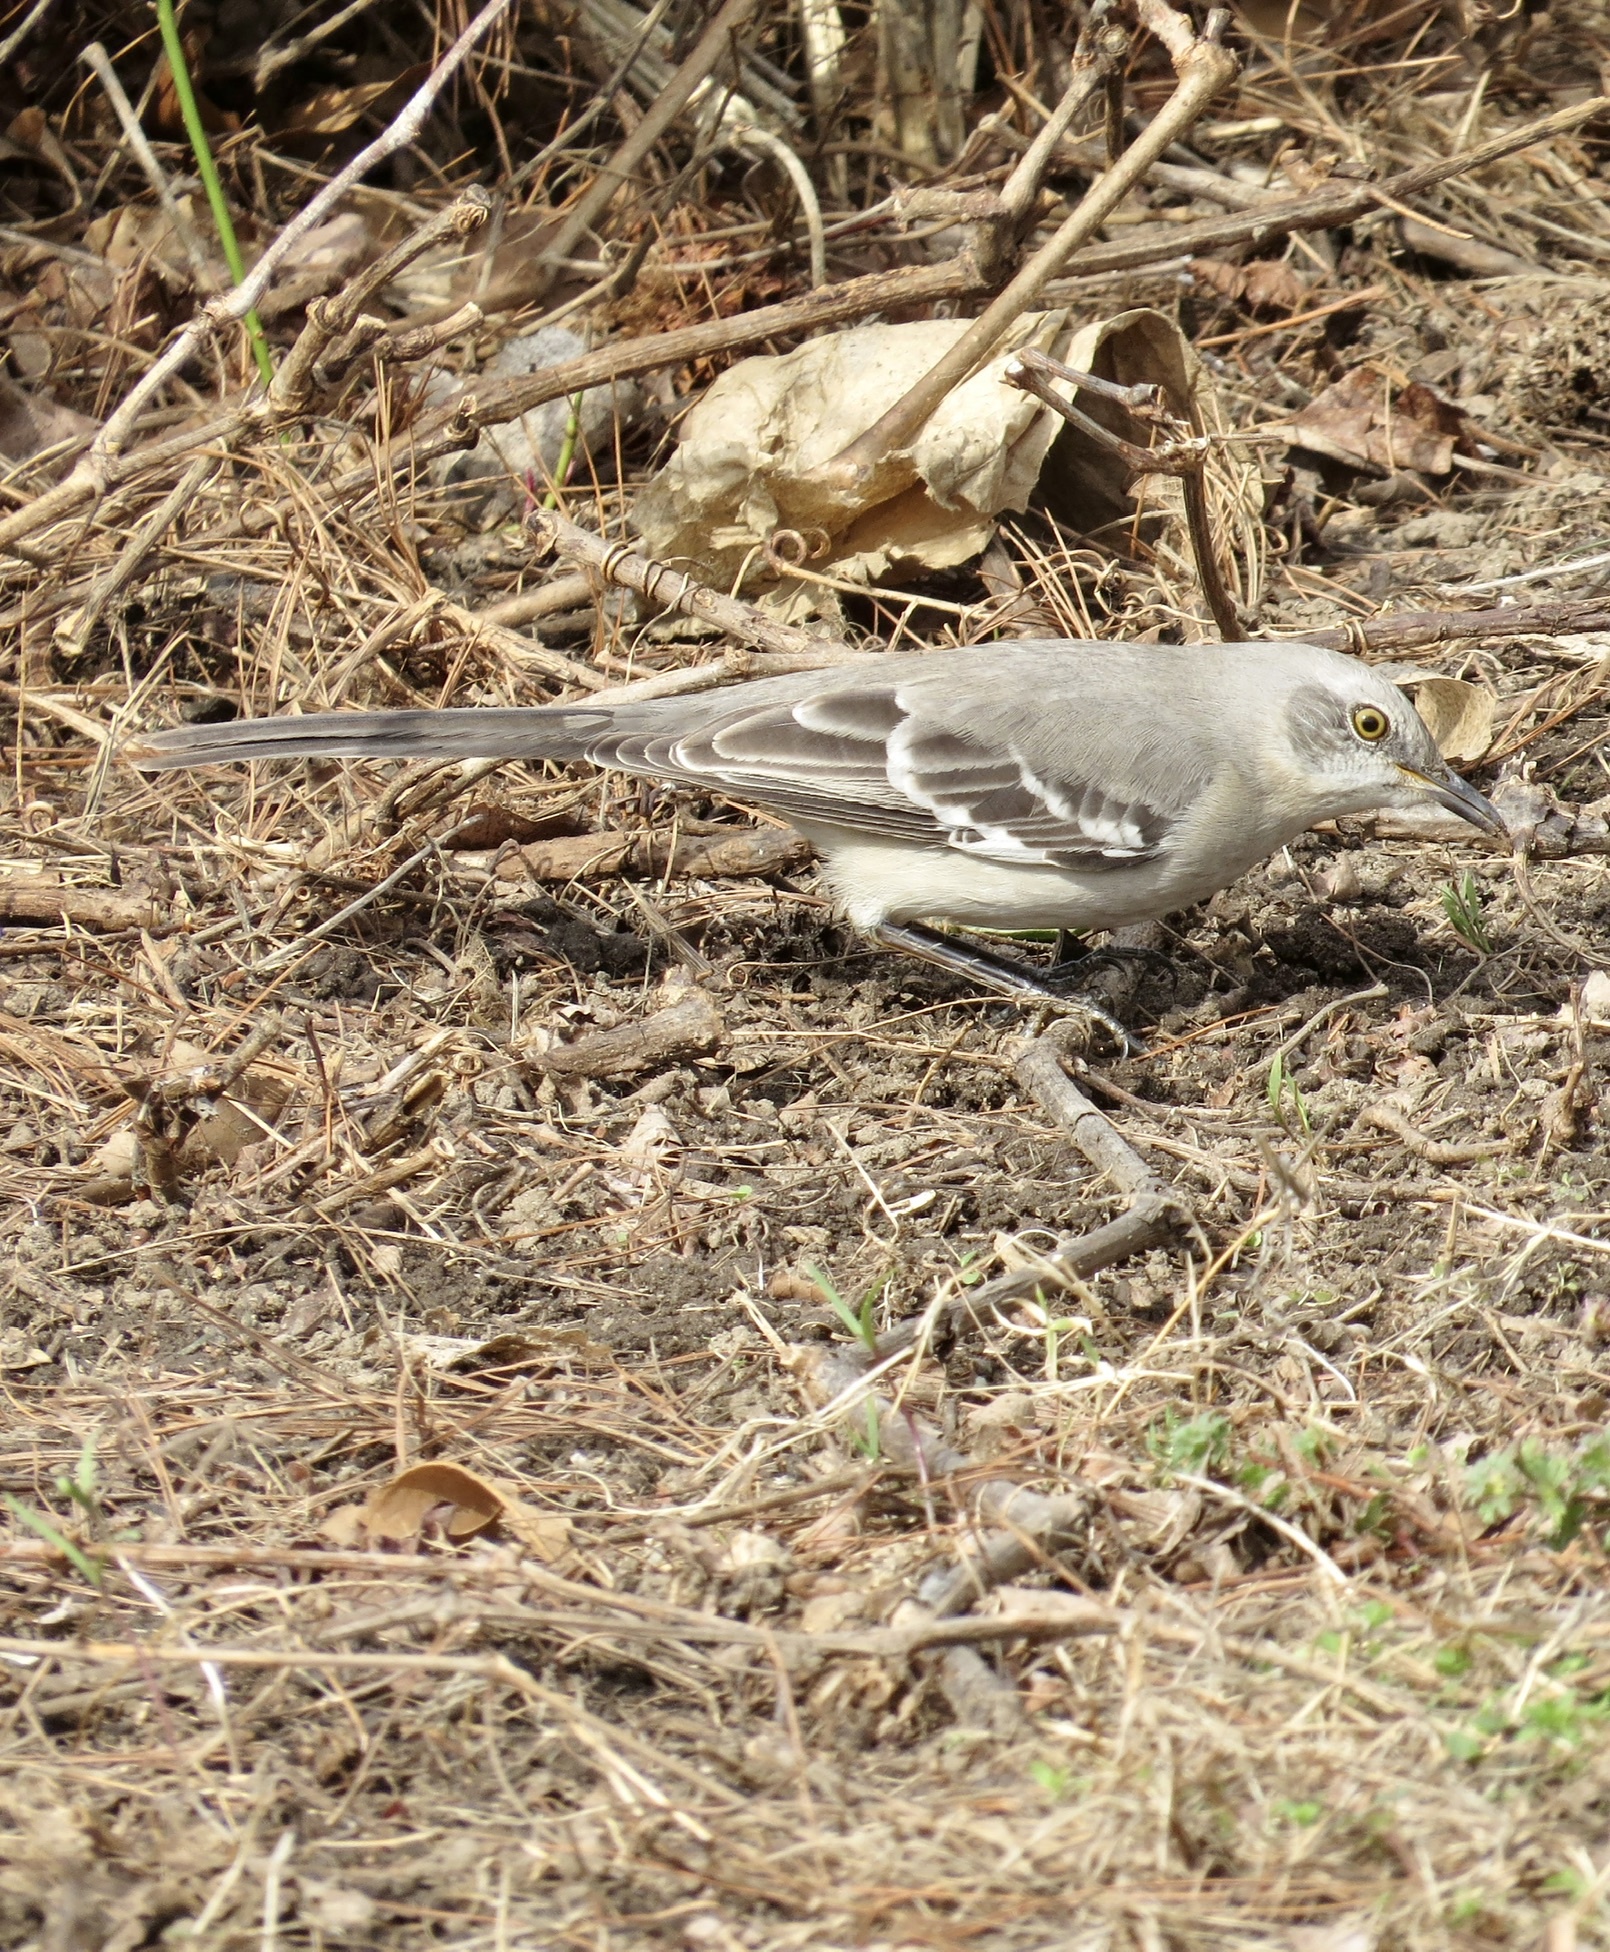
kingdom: Animalia
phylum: Chordata
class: Aves
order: Passeriformes
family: Mimidae
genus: Mimus
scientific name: Mimus polyglottos
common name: Northern mockingbird
